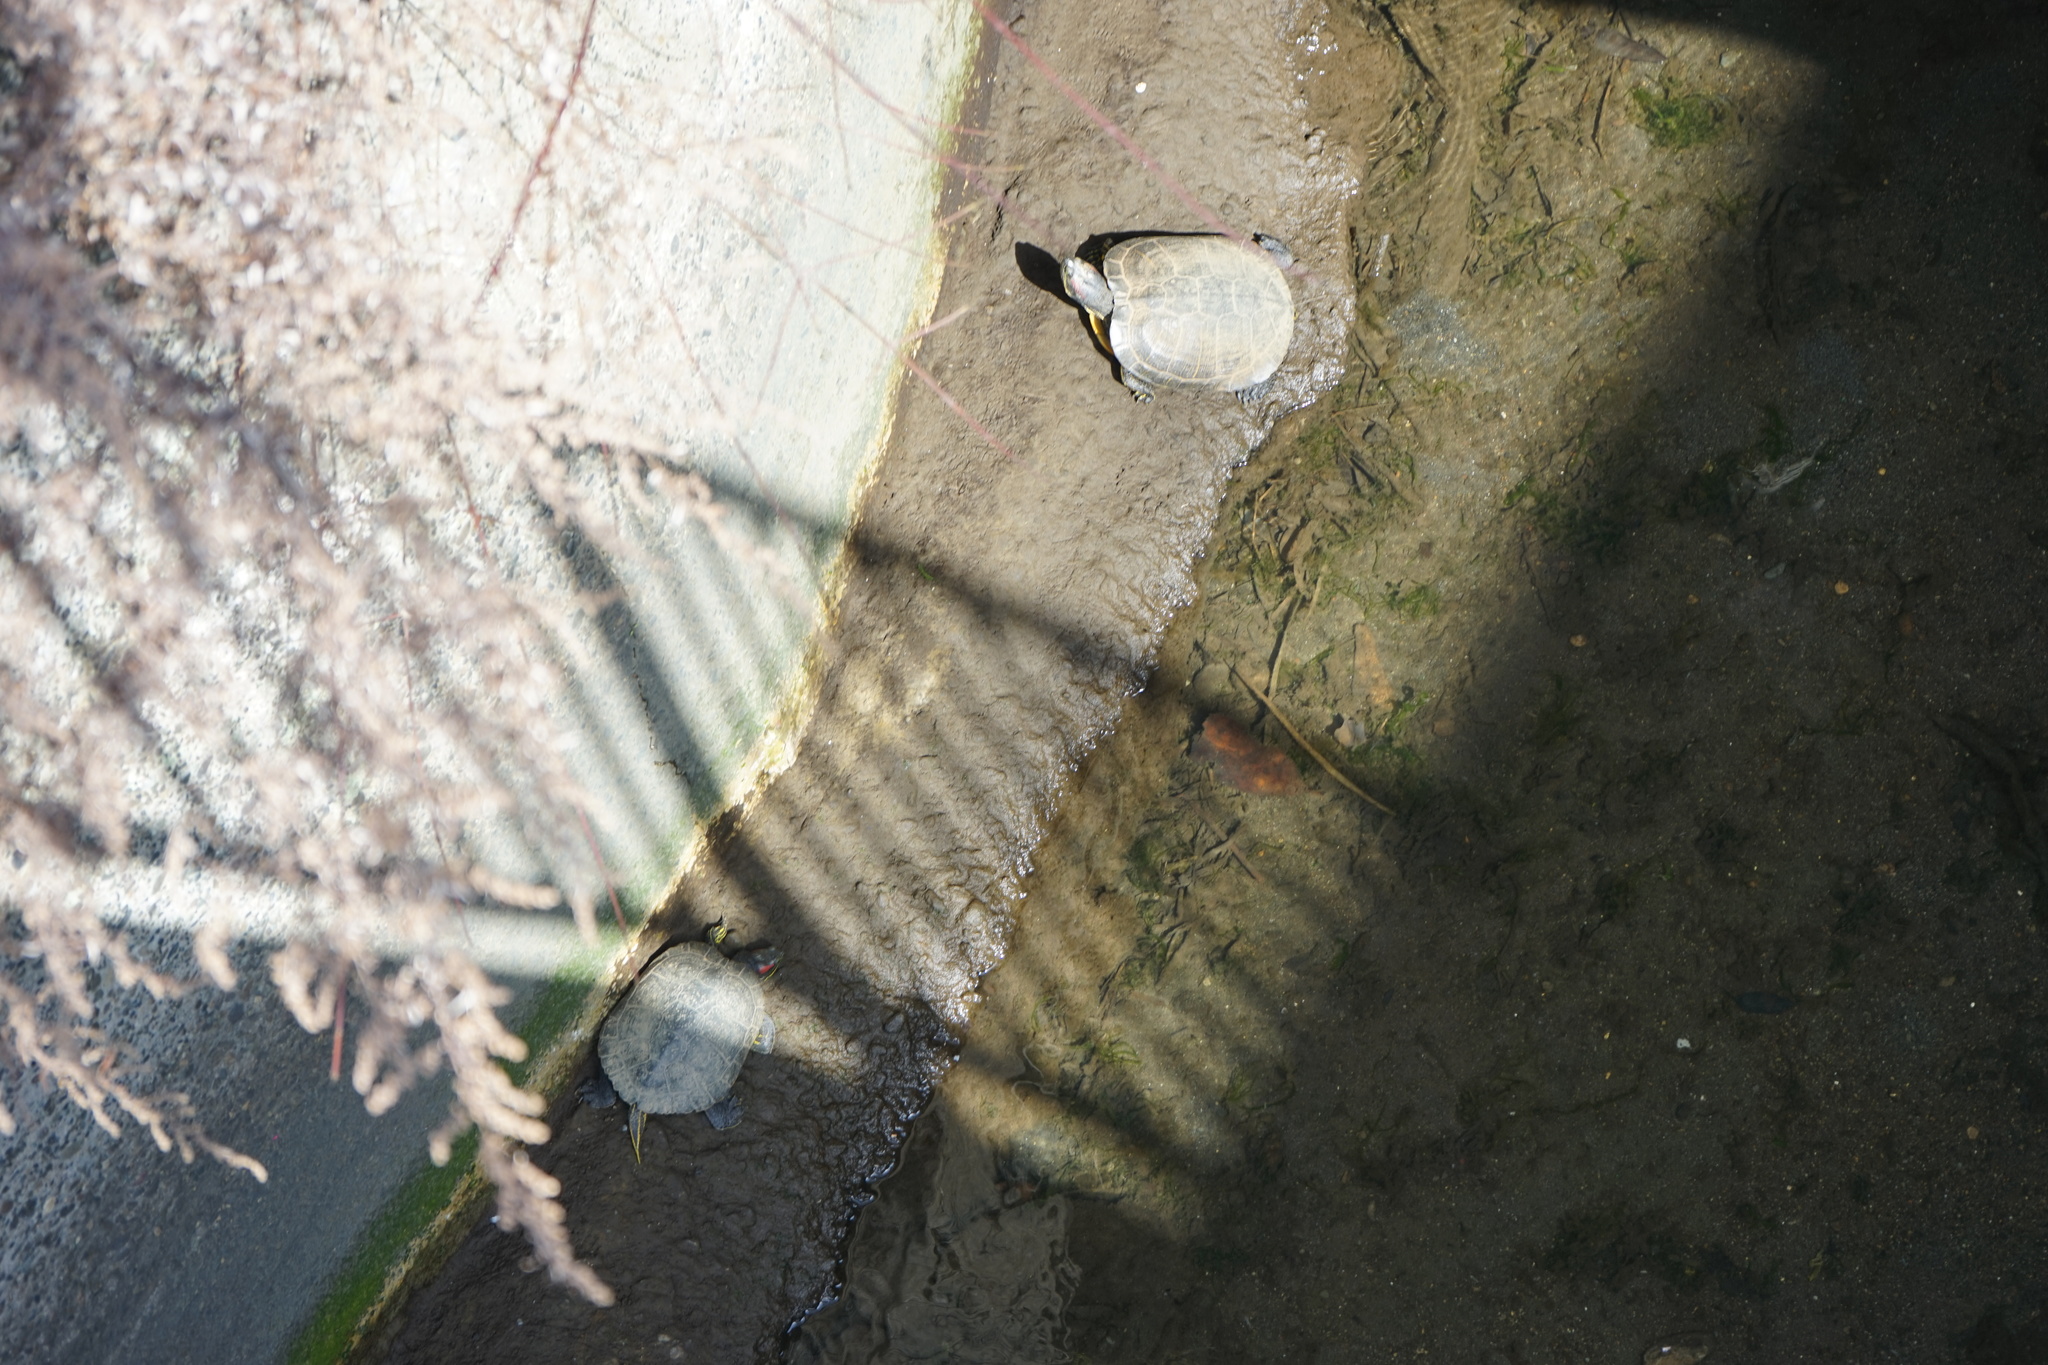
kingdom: Animalia
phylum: Chordata
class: Testudines
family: Emydidae
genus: Trachemys
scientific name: Trachemys scripta
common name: Slider
